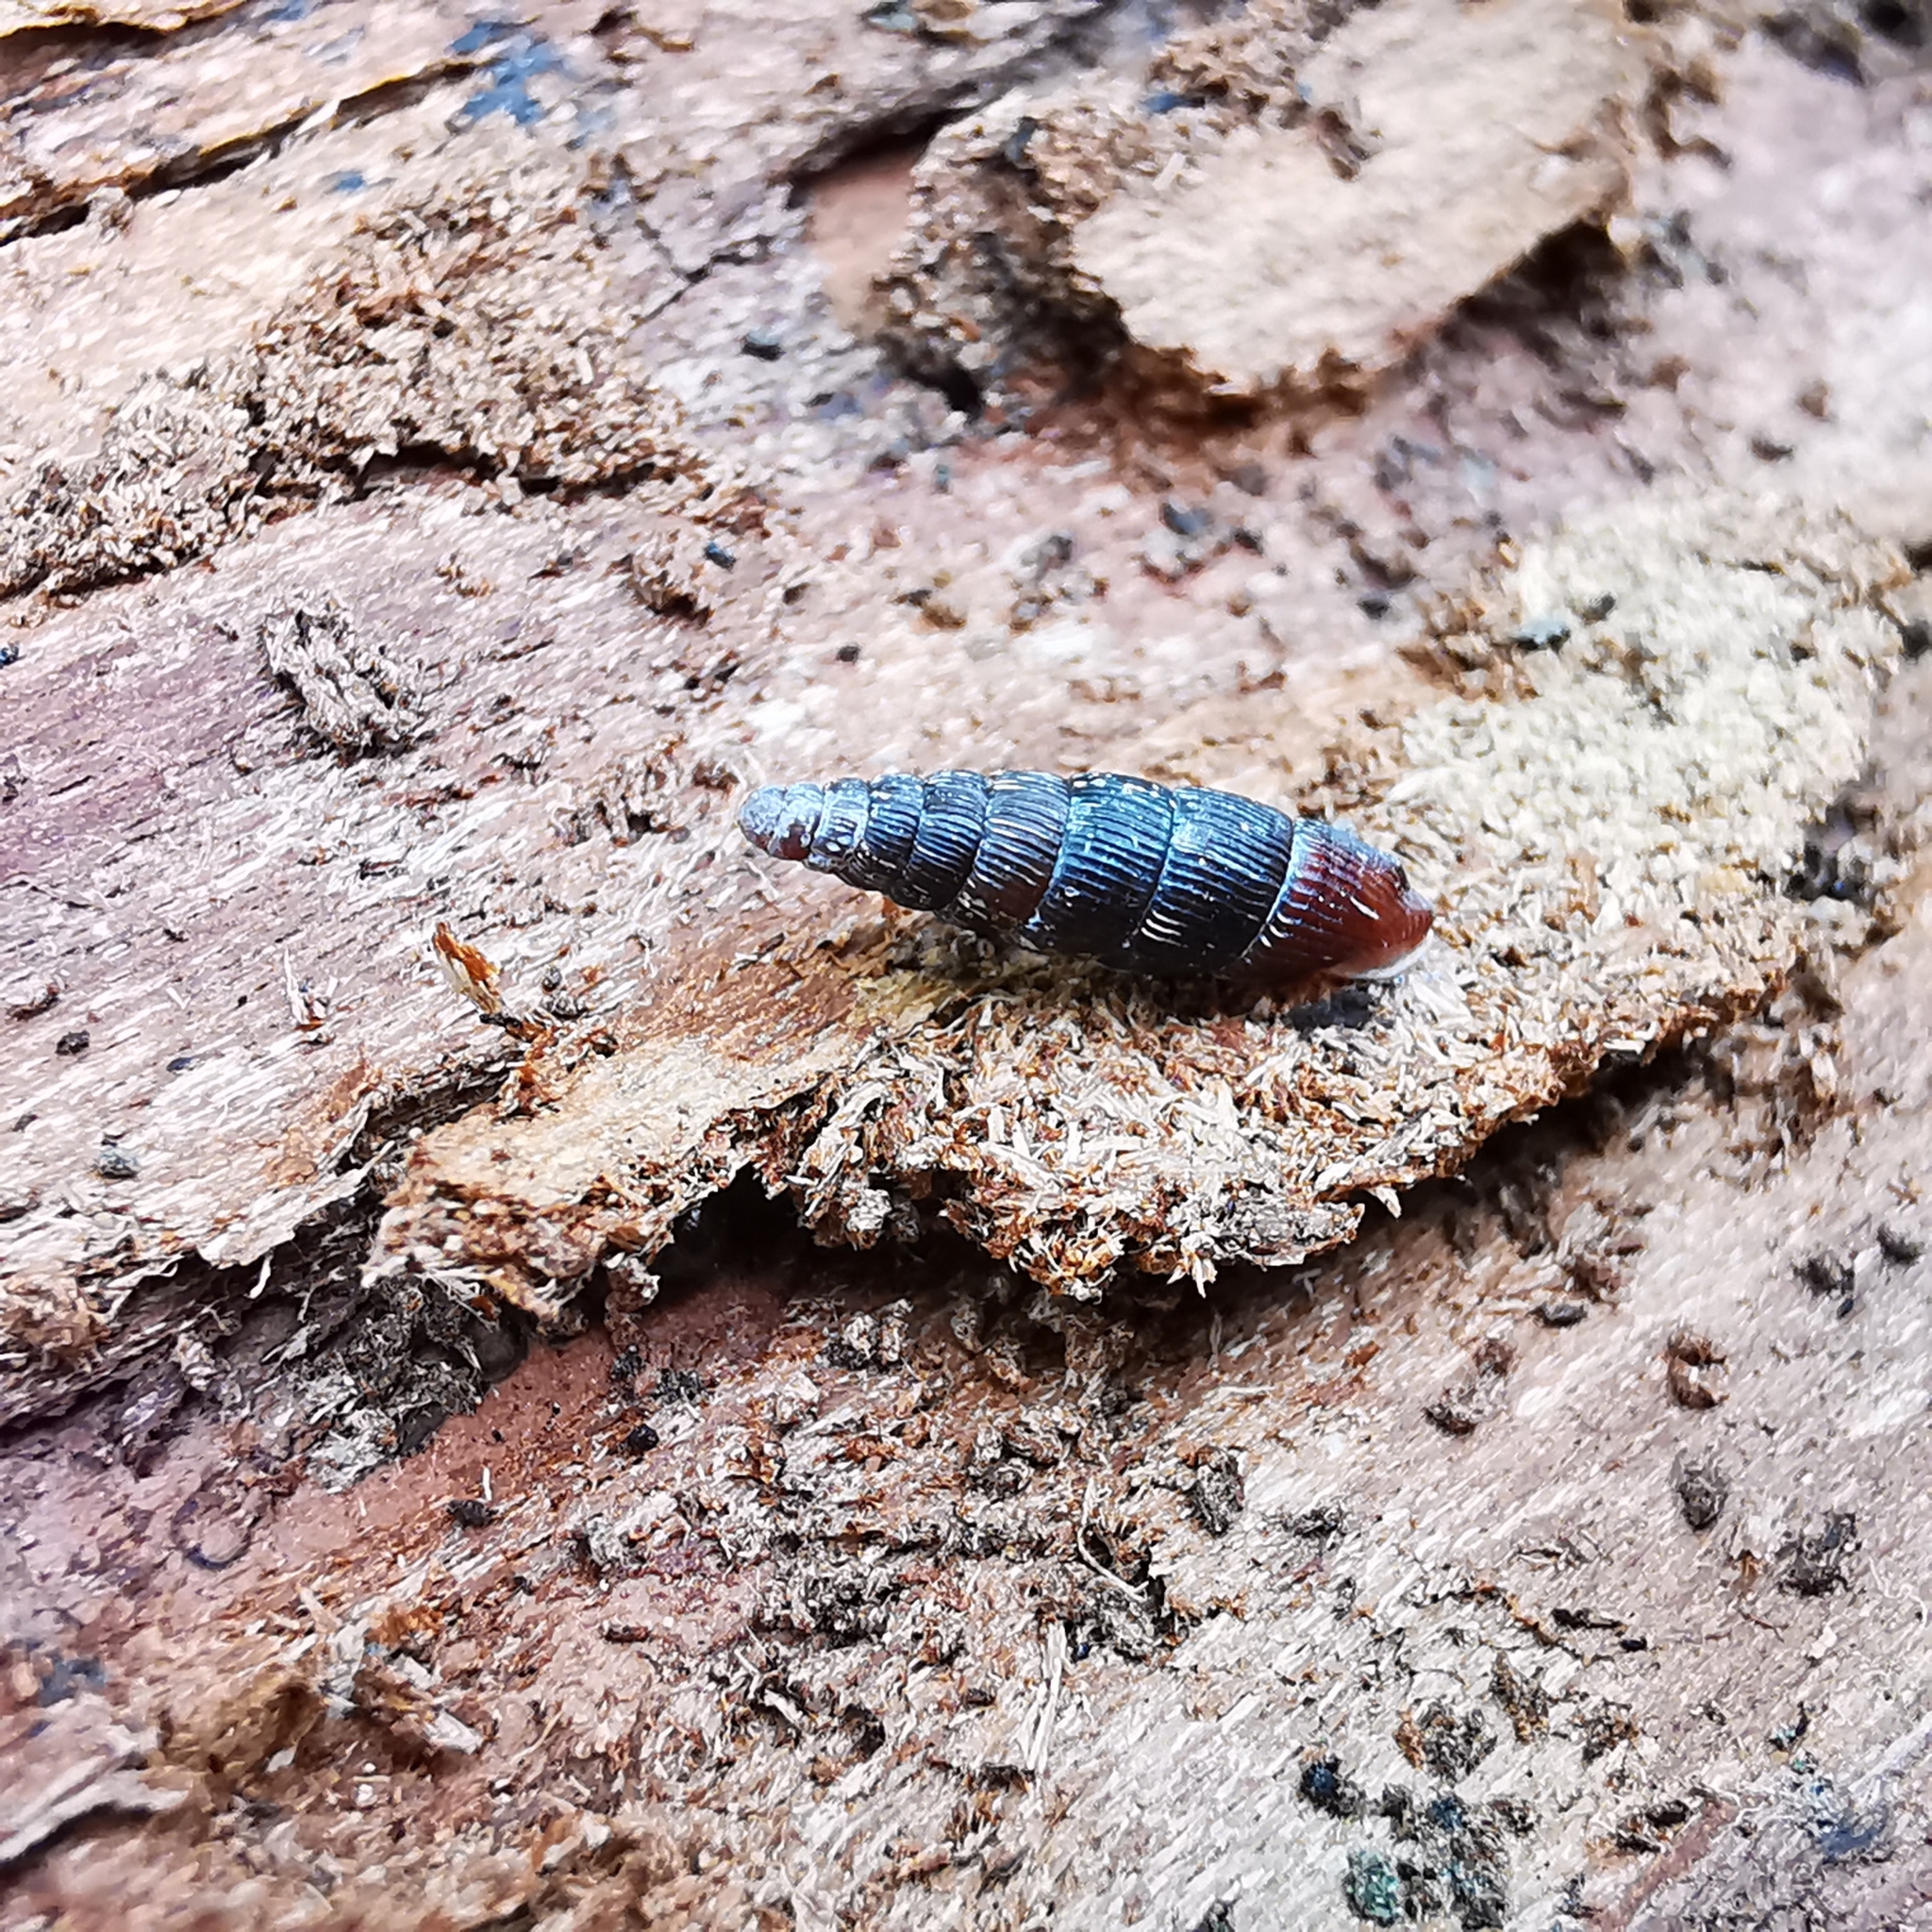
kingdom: Animalia
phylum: Mollusca
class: Gastropoda
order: Stylommatophora
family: Clausiliidae
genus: Clausilia
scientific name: Clausilia cruciata
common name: Sharp-ribbed door snail
